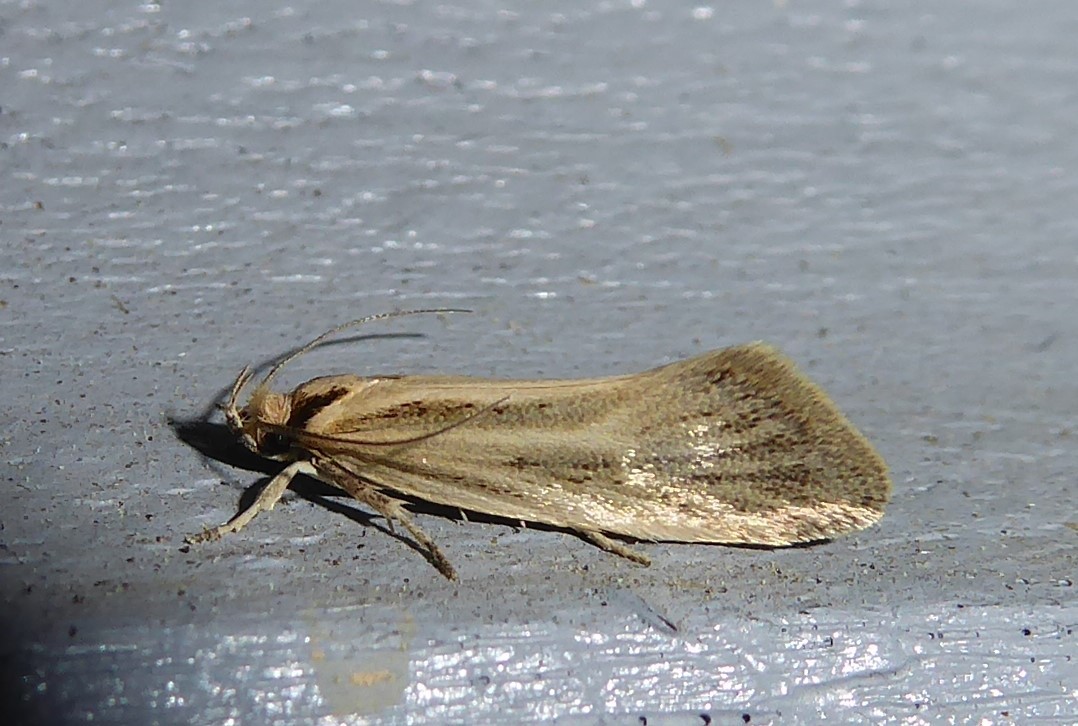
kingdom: Animalia
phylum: Arthropoda
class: Insecta
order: Lepidoptera
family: Oecophoridae
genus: Tingena
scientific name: Tingena chloradelpha
